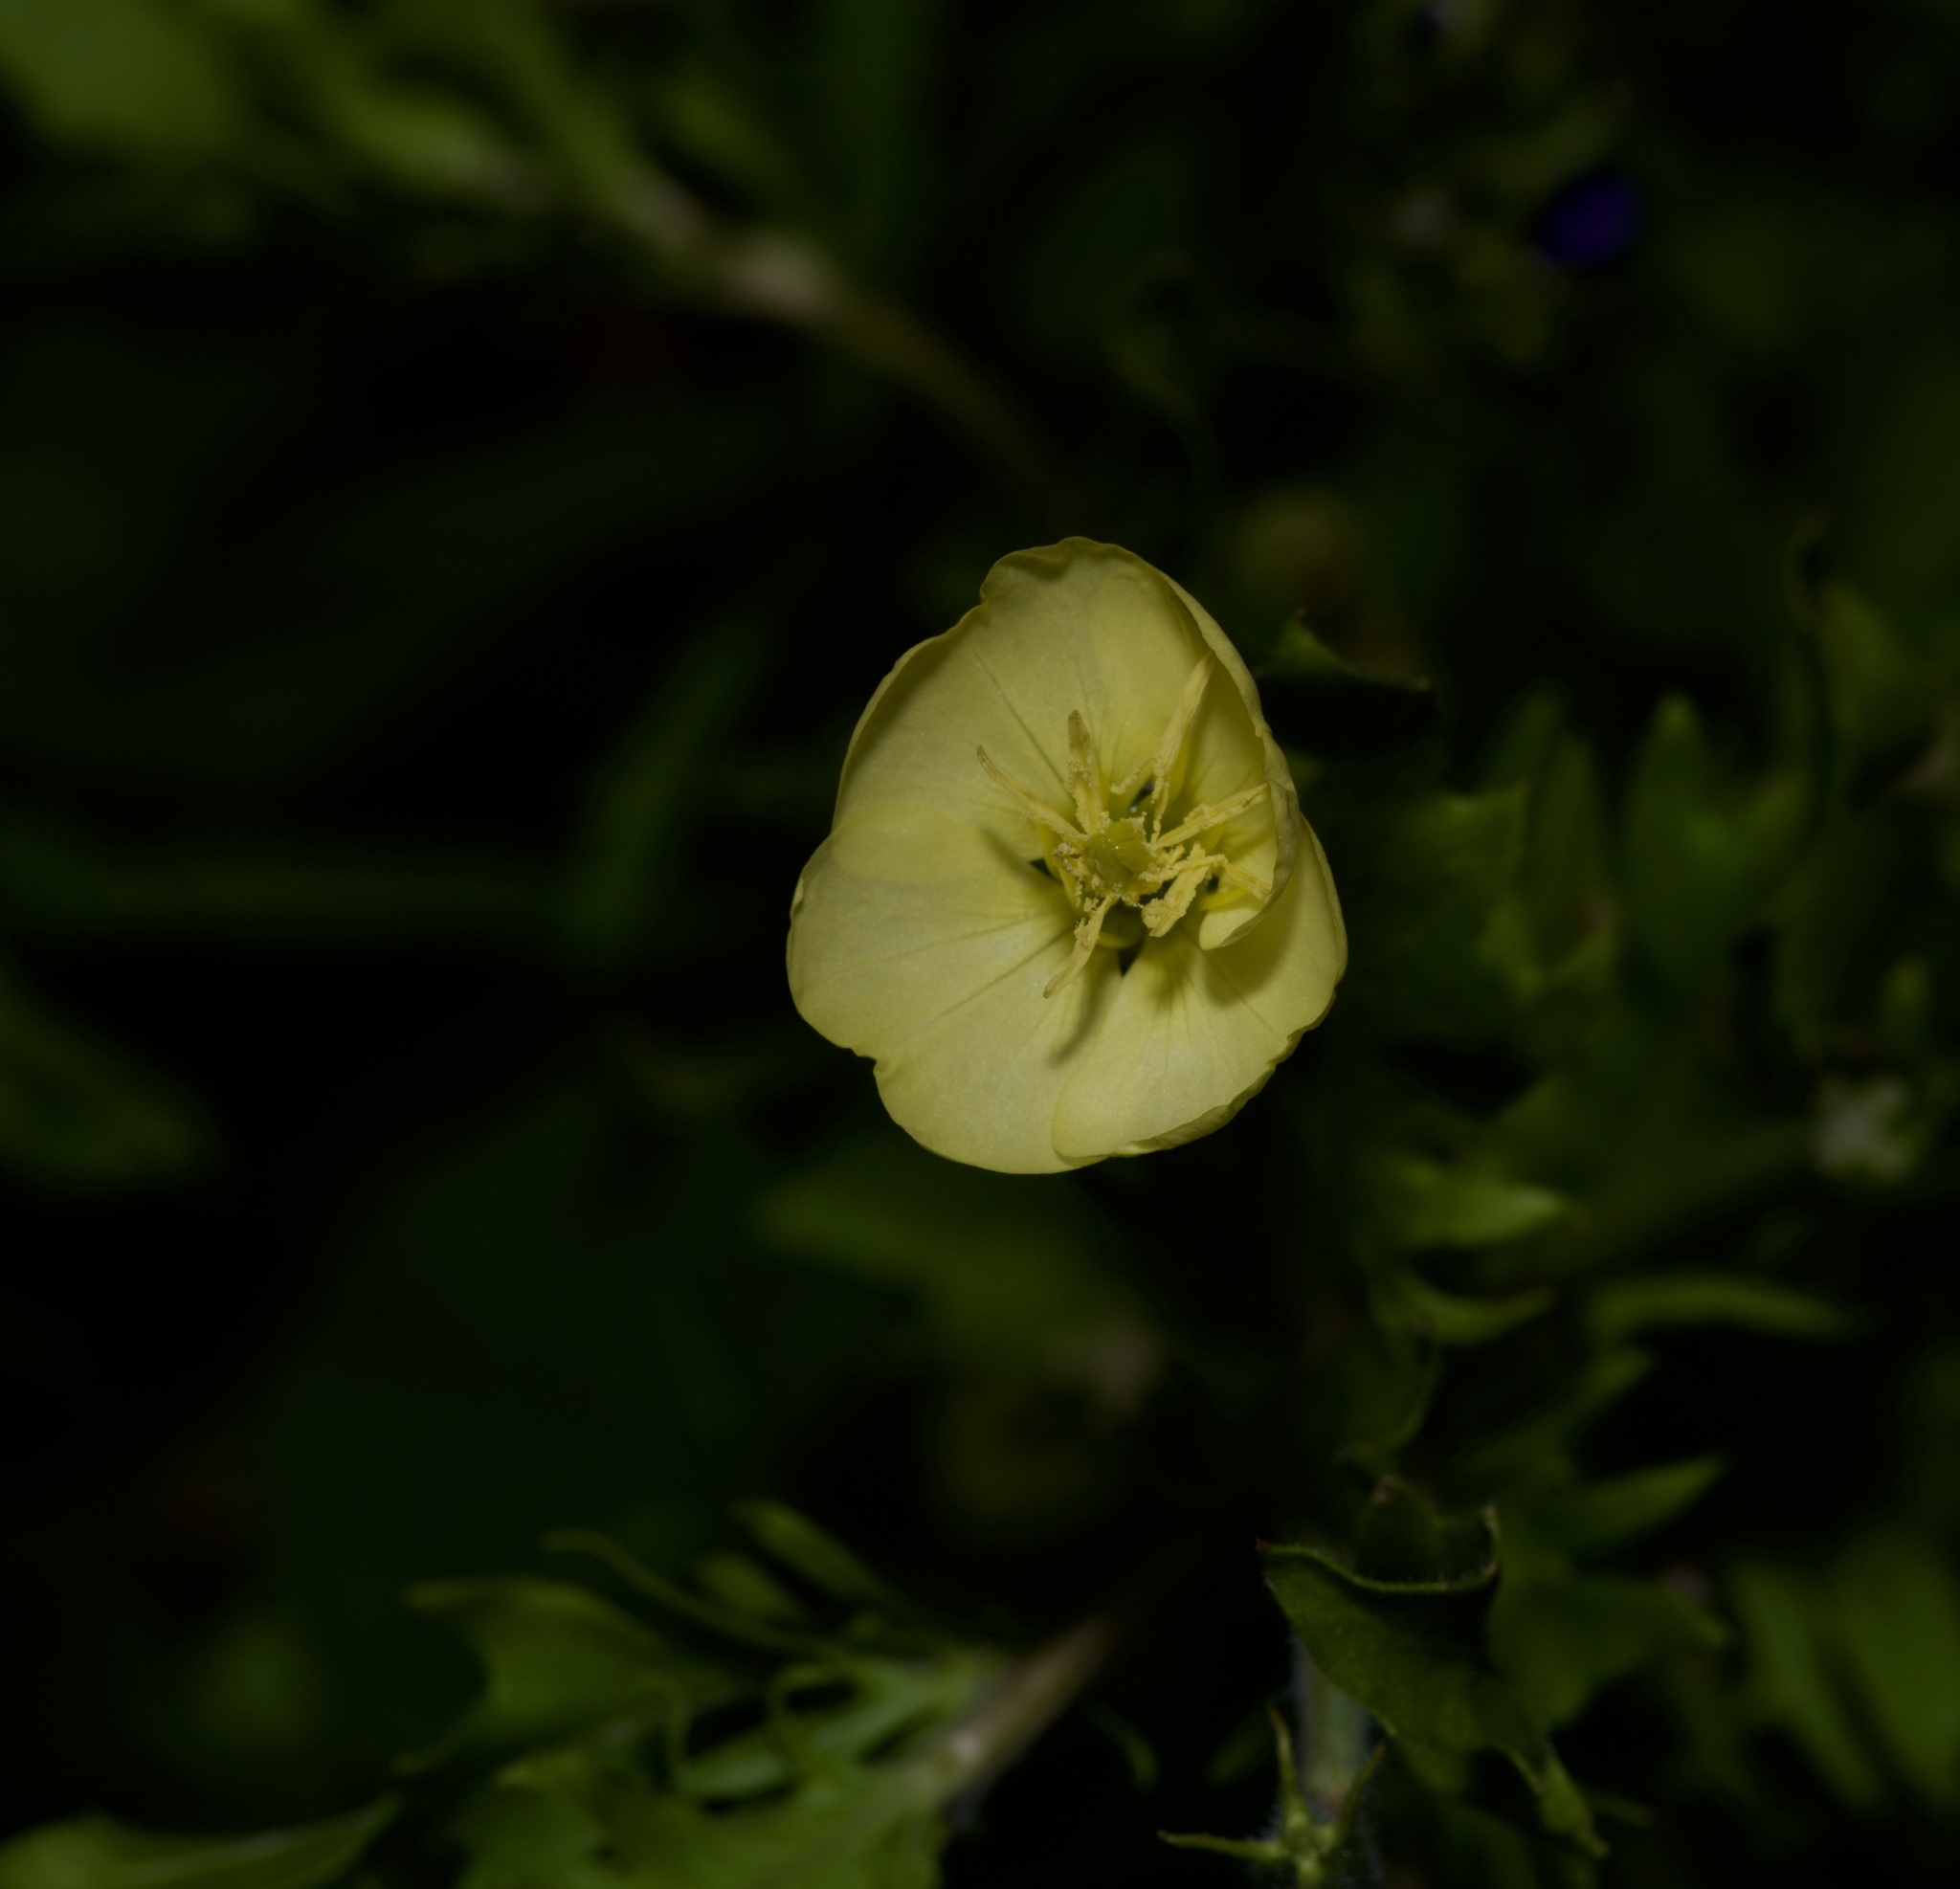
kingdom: Plantae
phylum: Tracheophyta
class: Magnoliopsida
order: Myrtales
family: Onagraceae
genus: Oenothera
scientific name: Oenothera laciniata
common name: Cut-leaved evening-primrose
